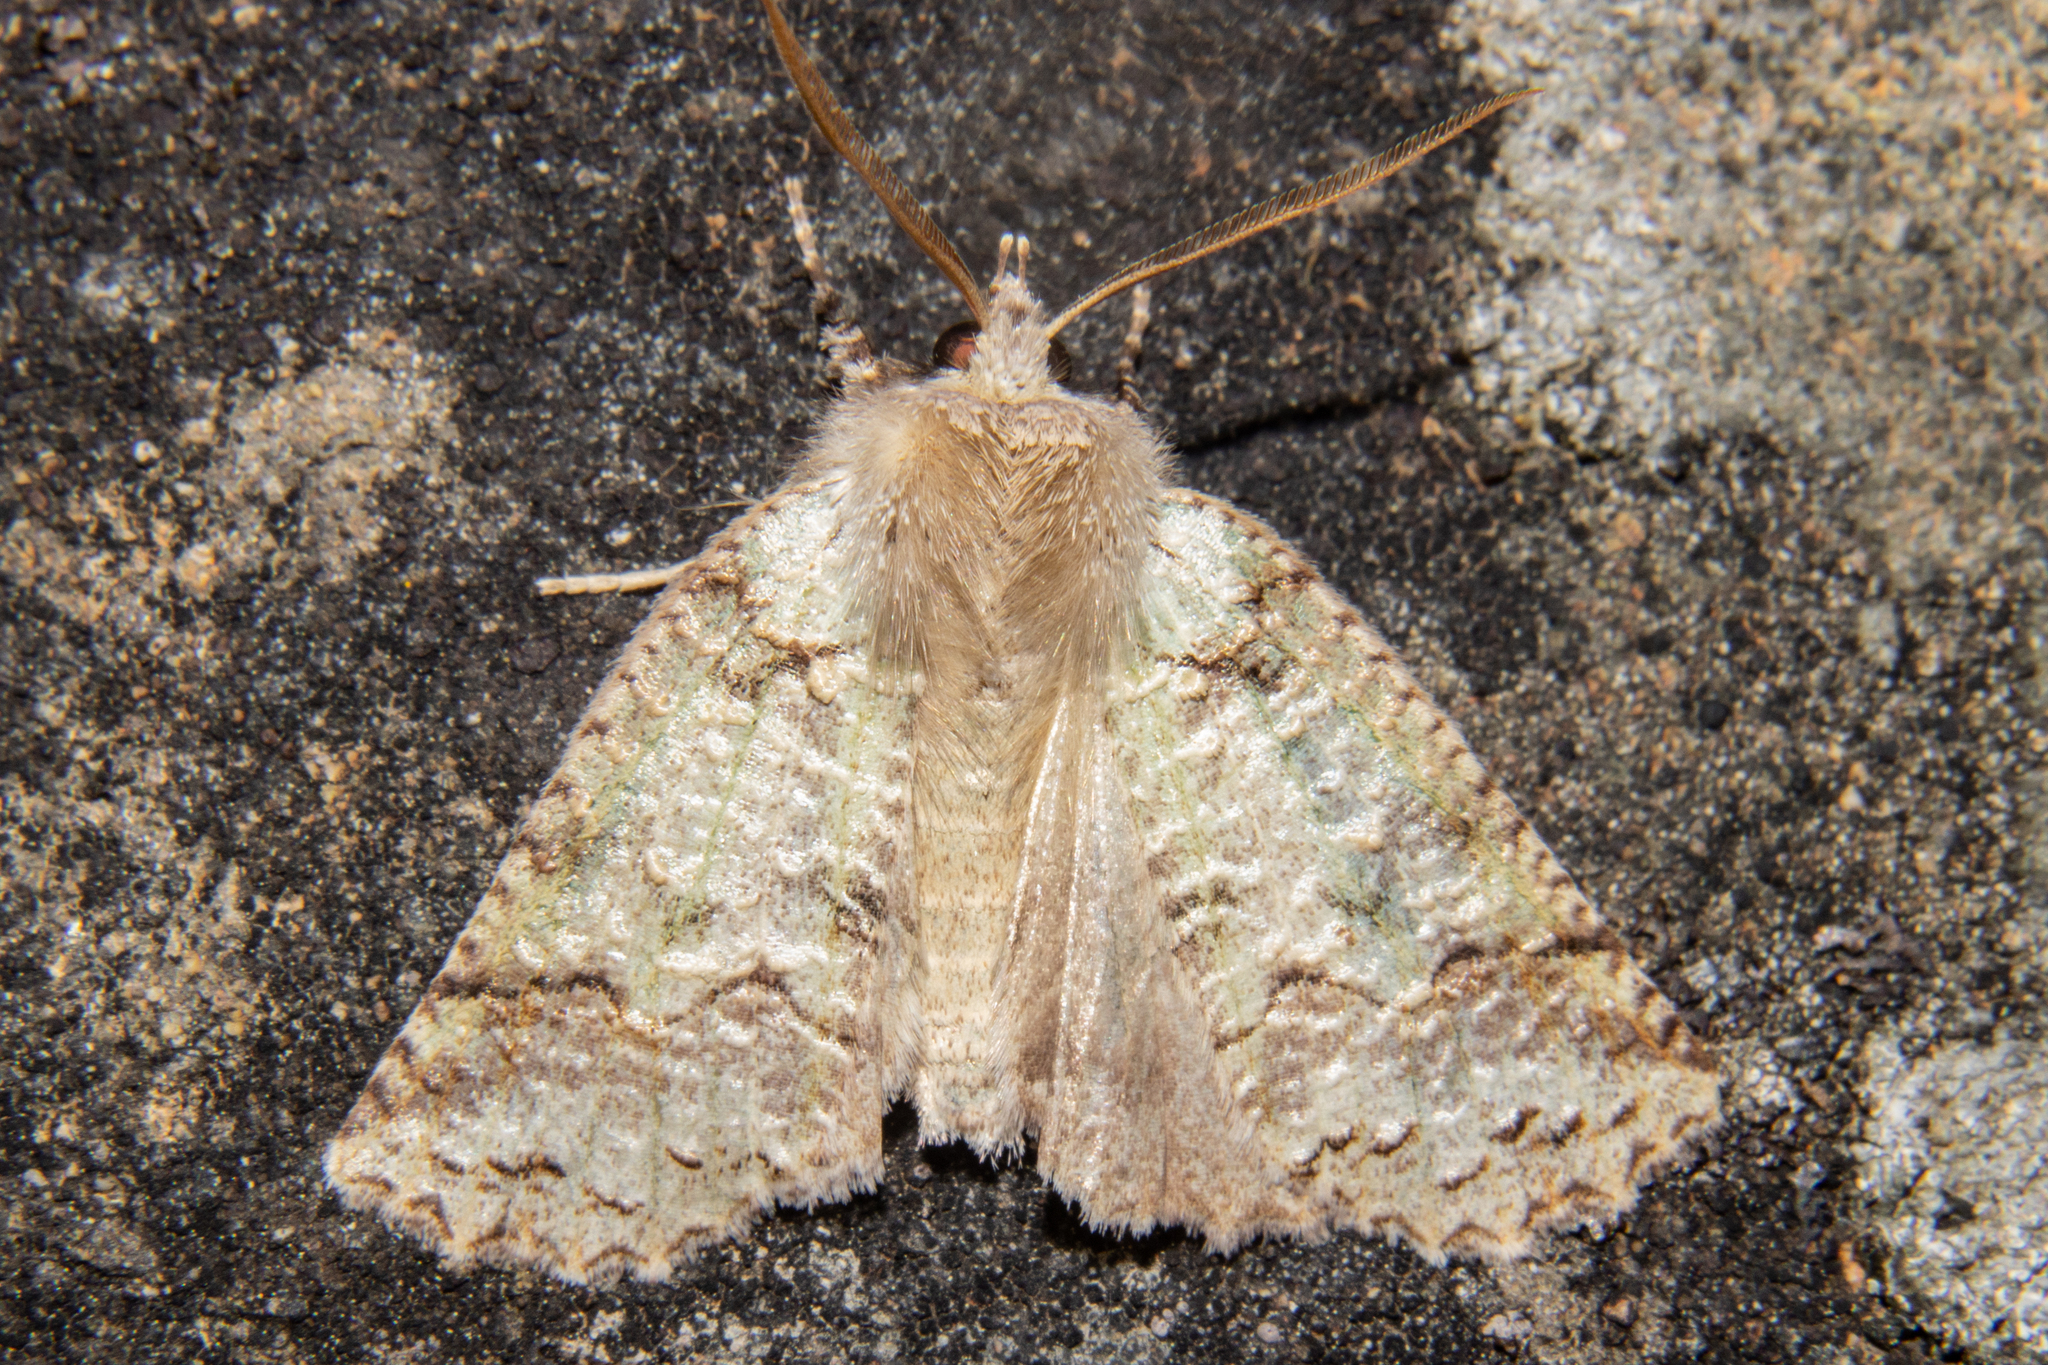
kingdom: Animalia
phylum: Arthropoda
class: Insecta
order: Lepidoptera
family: Geometridae
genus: Declana
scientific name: Declana floccosa
